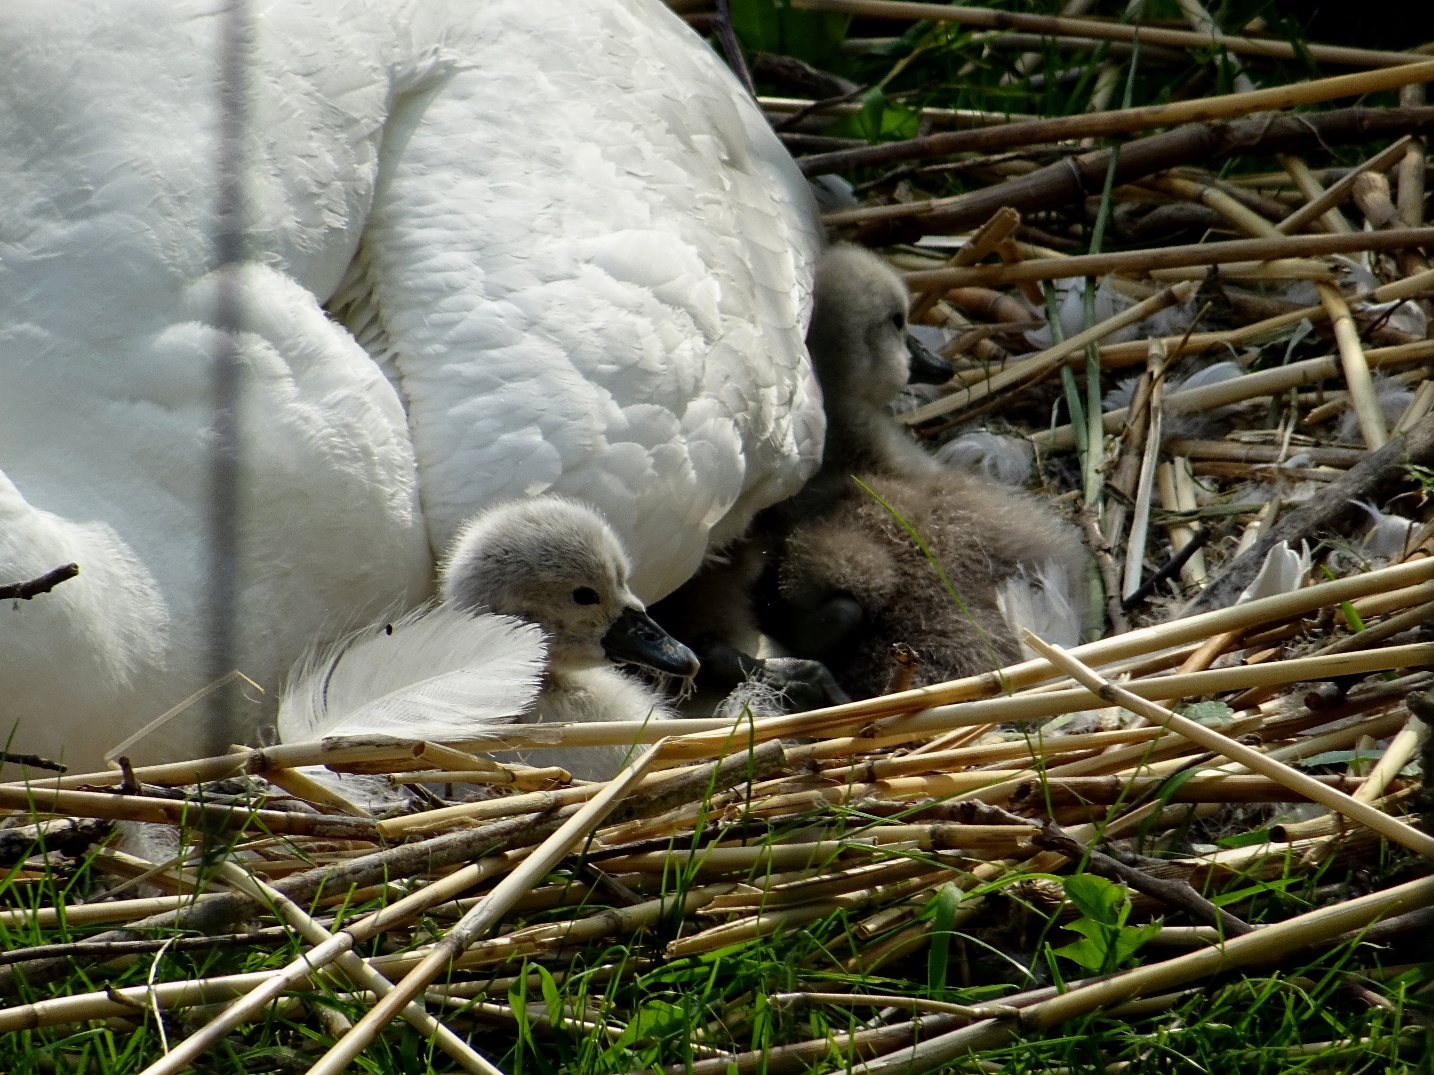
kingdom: Animalia
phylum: Chordata
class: Aves
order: Anseriformes
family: Anatidae
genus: Cygnus
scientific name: Cygnus olor
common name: Mute swan
